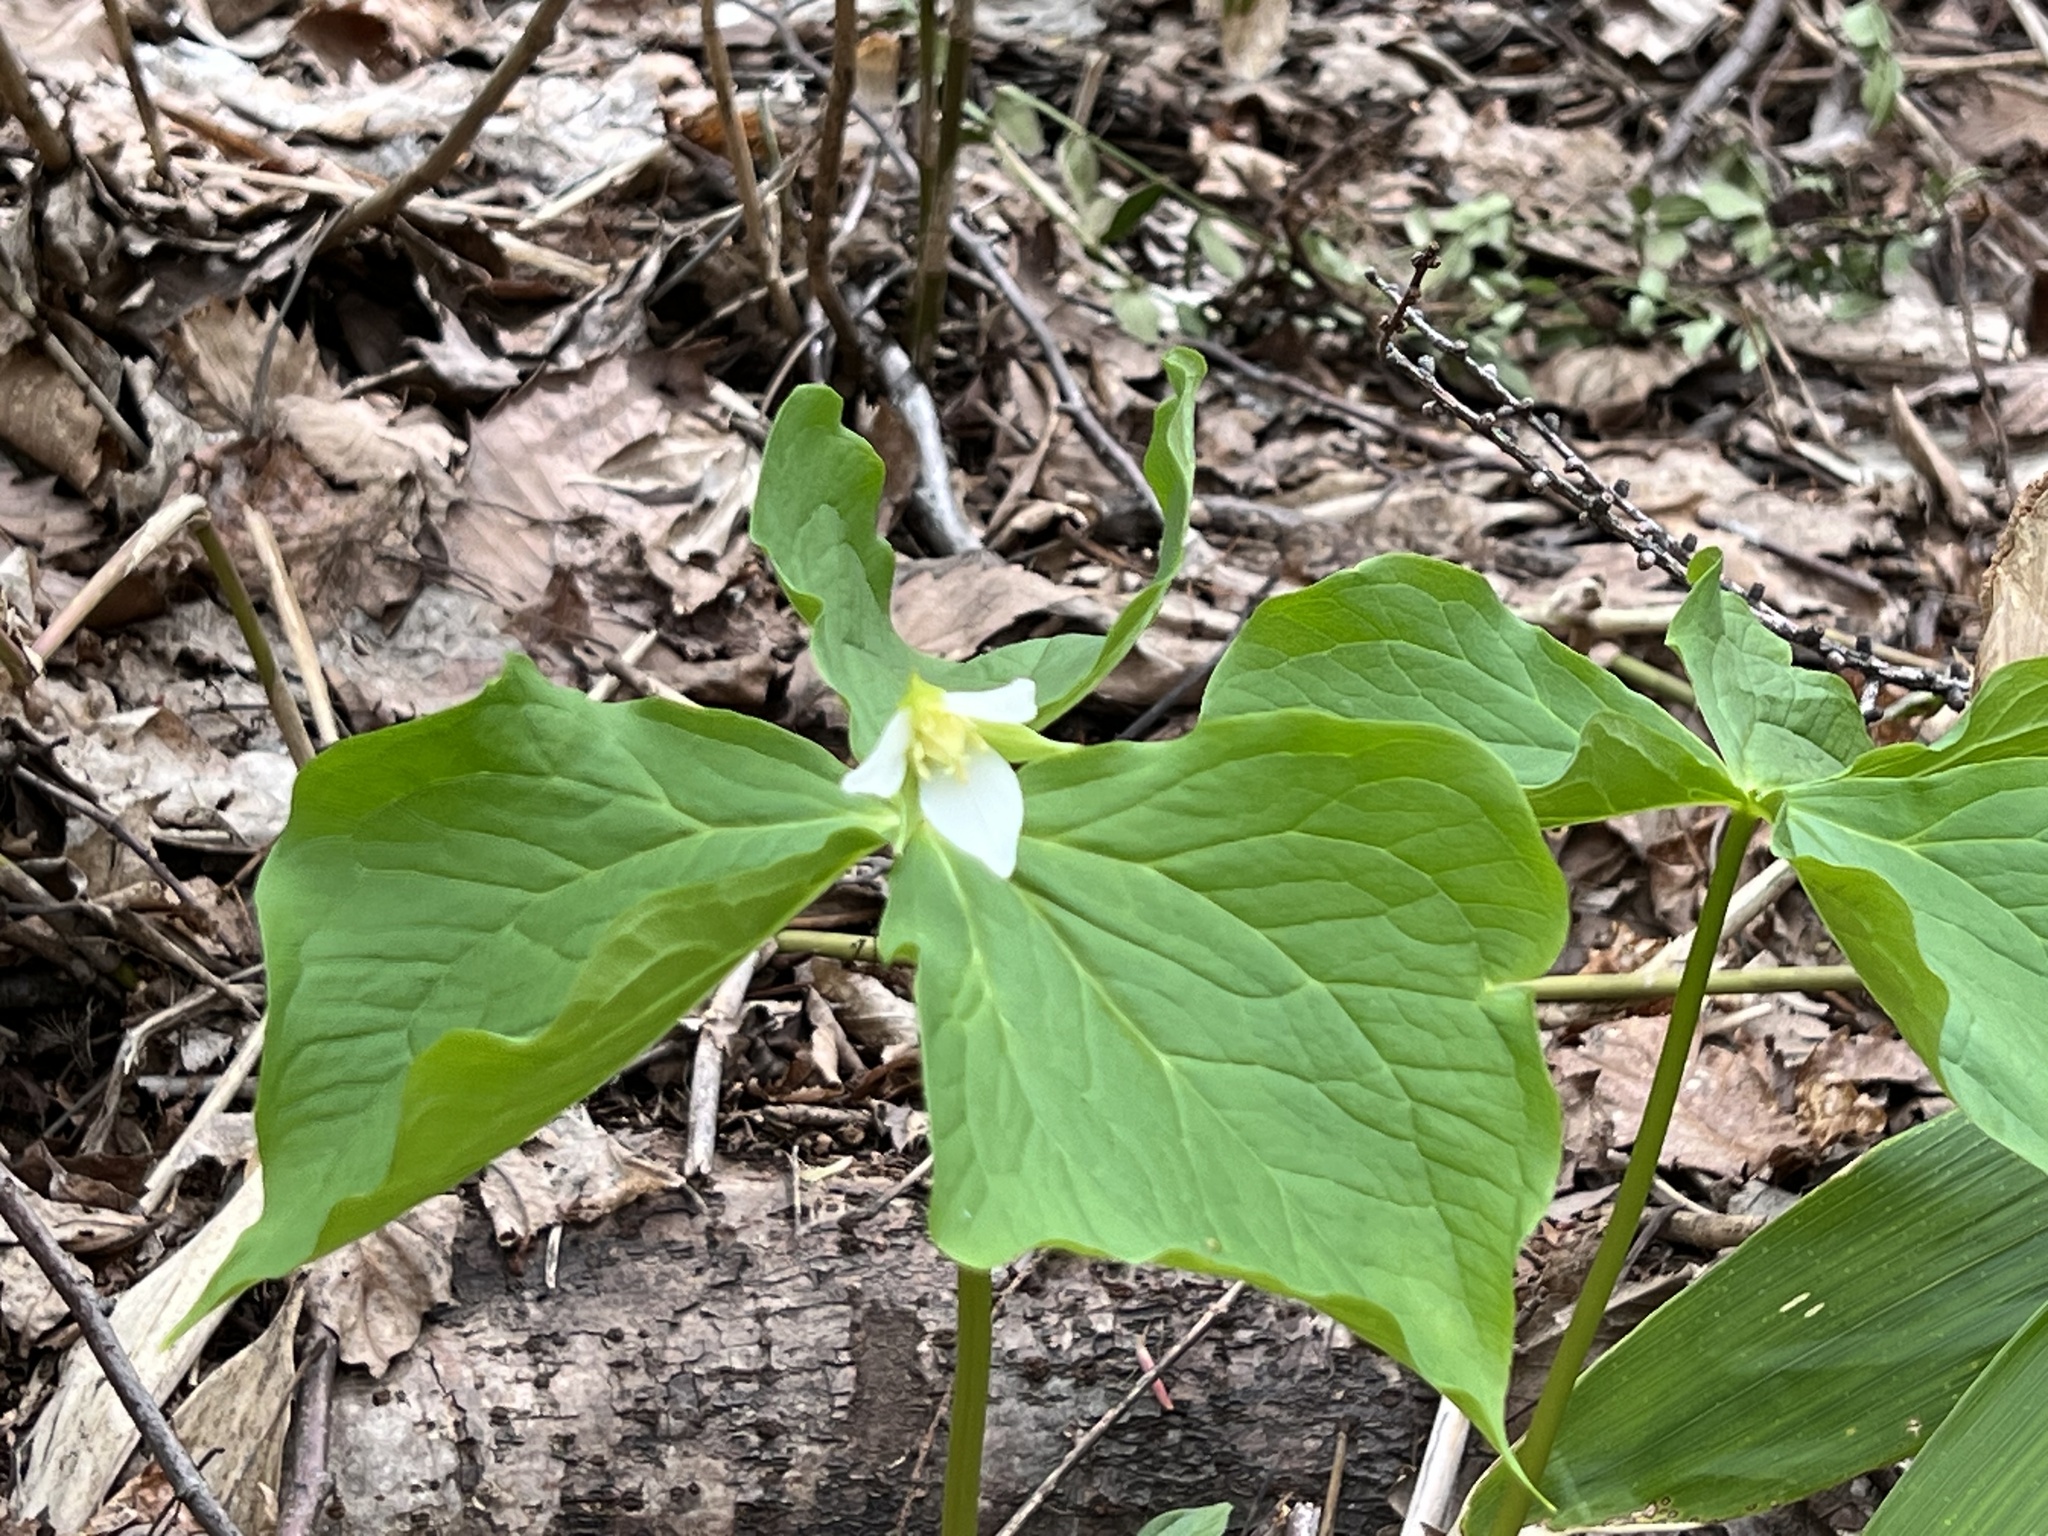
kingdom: Plantae
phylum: Tracheophyta
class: Liliopsida
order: Liliales
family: Melanthiaceae
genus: Trillium
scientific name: Trillium tschonoskii
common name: A pearl on head
